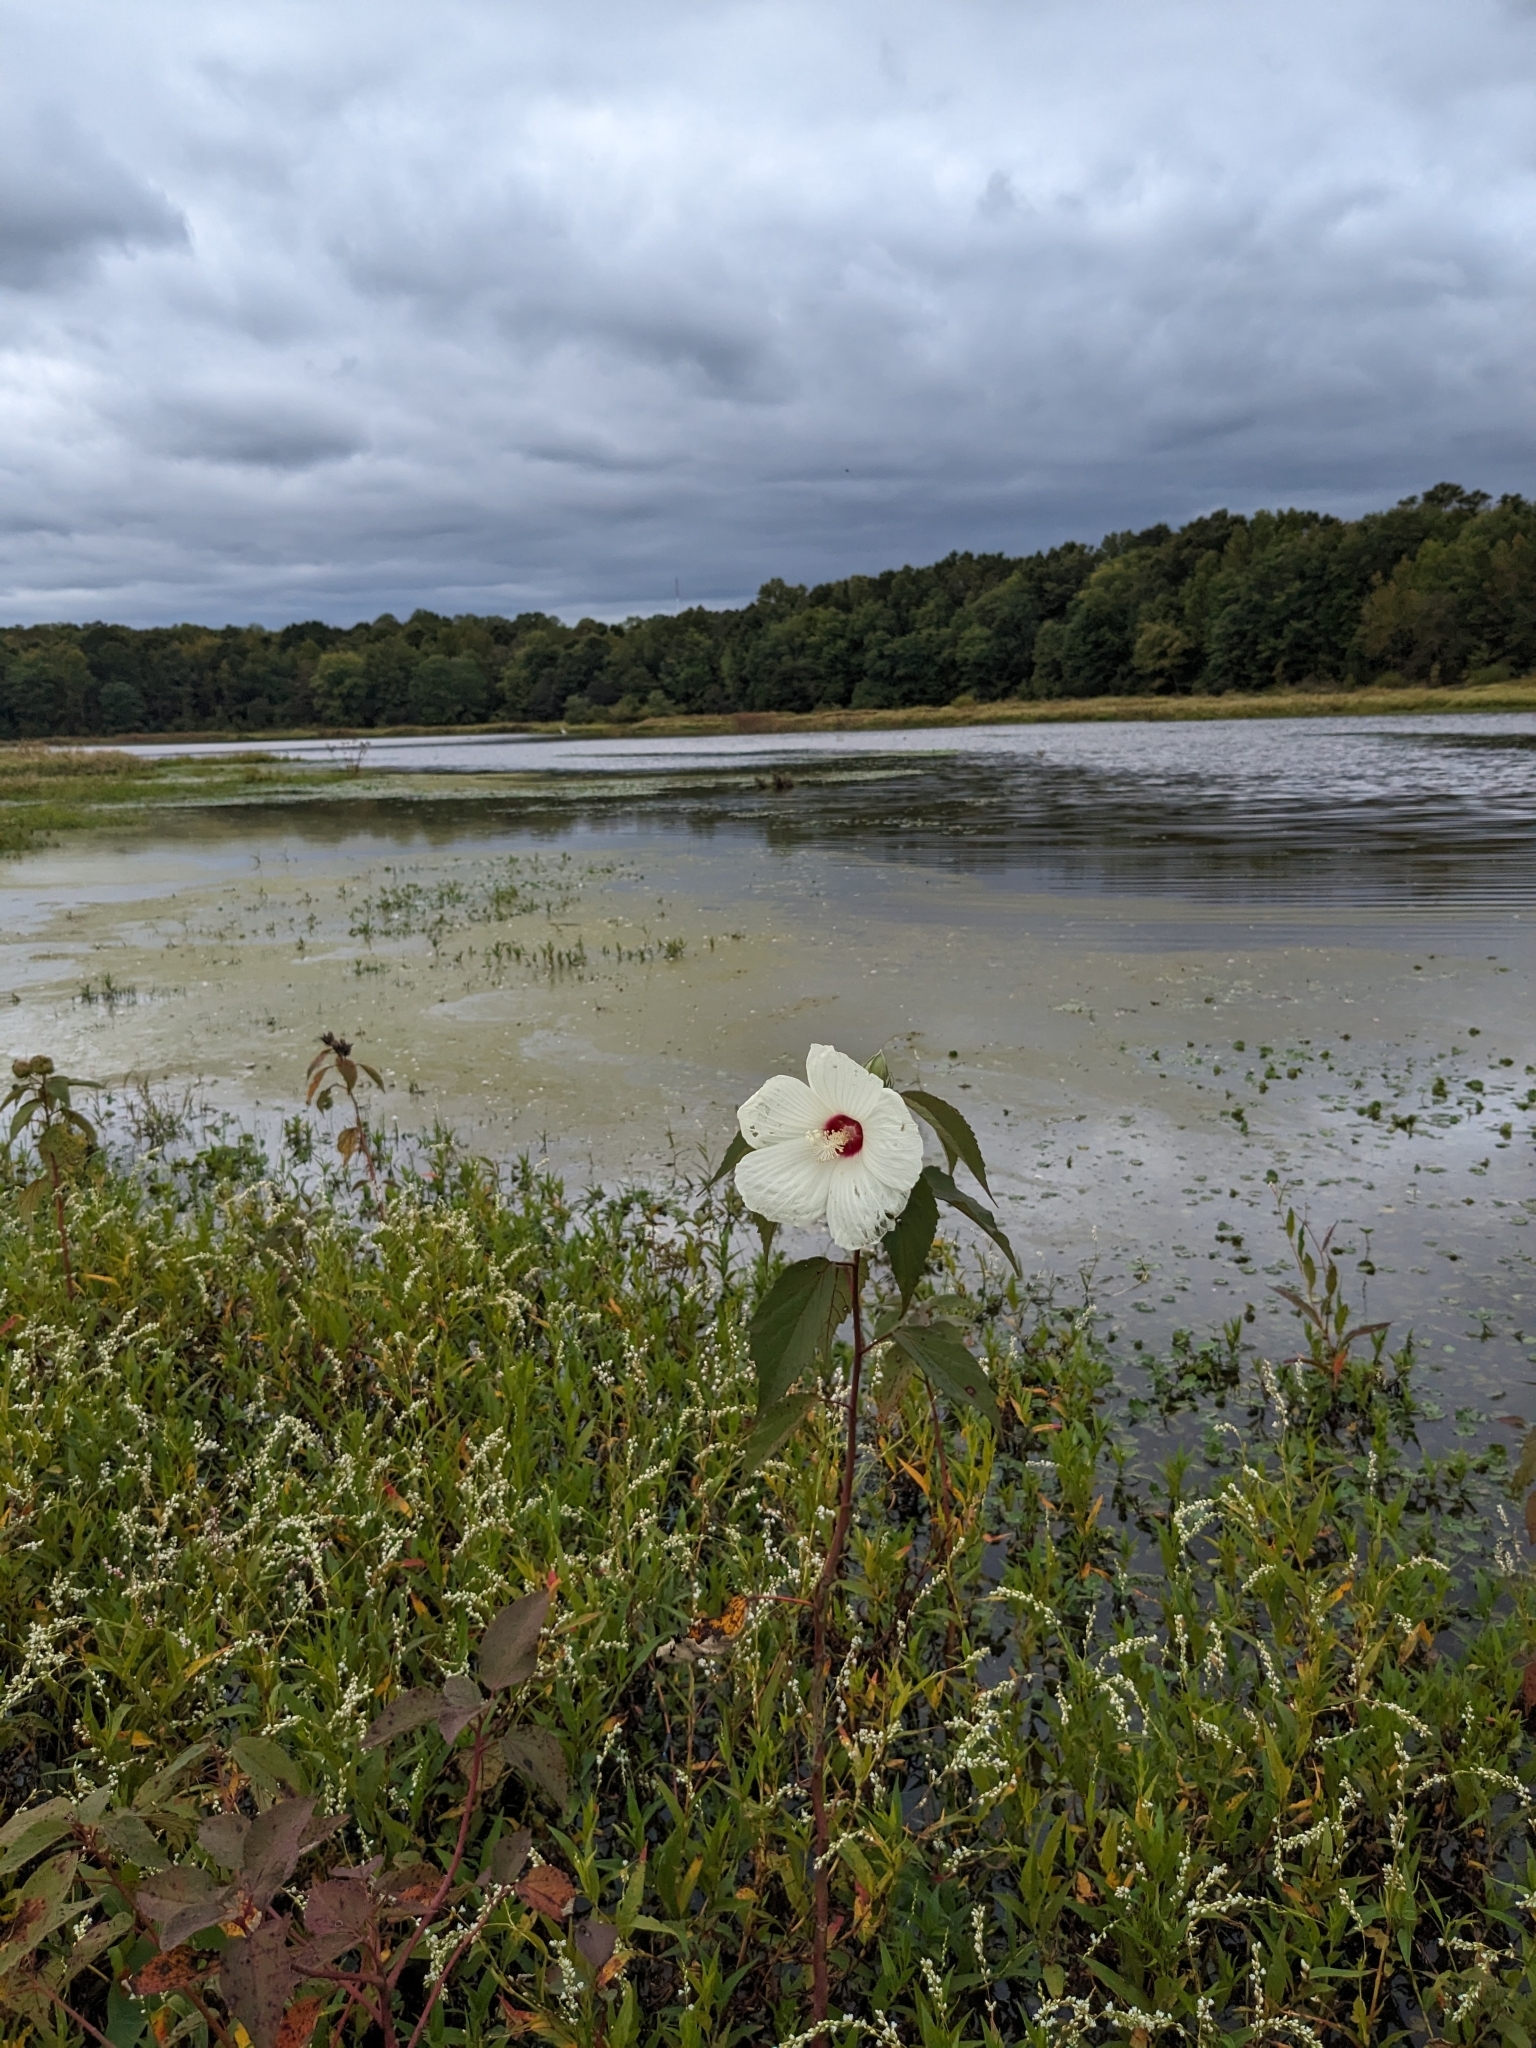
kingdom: Plantae
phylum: Tracheophyta
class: Magnoliopsida
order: Malvales
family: Malvaceae
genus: Hibiscus
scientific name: Hibiscus moscheutos
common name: Common rose-mallow
